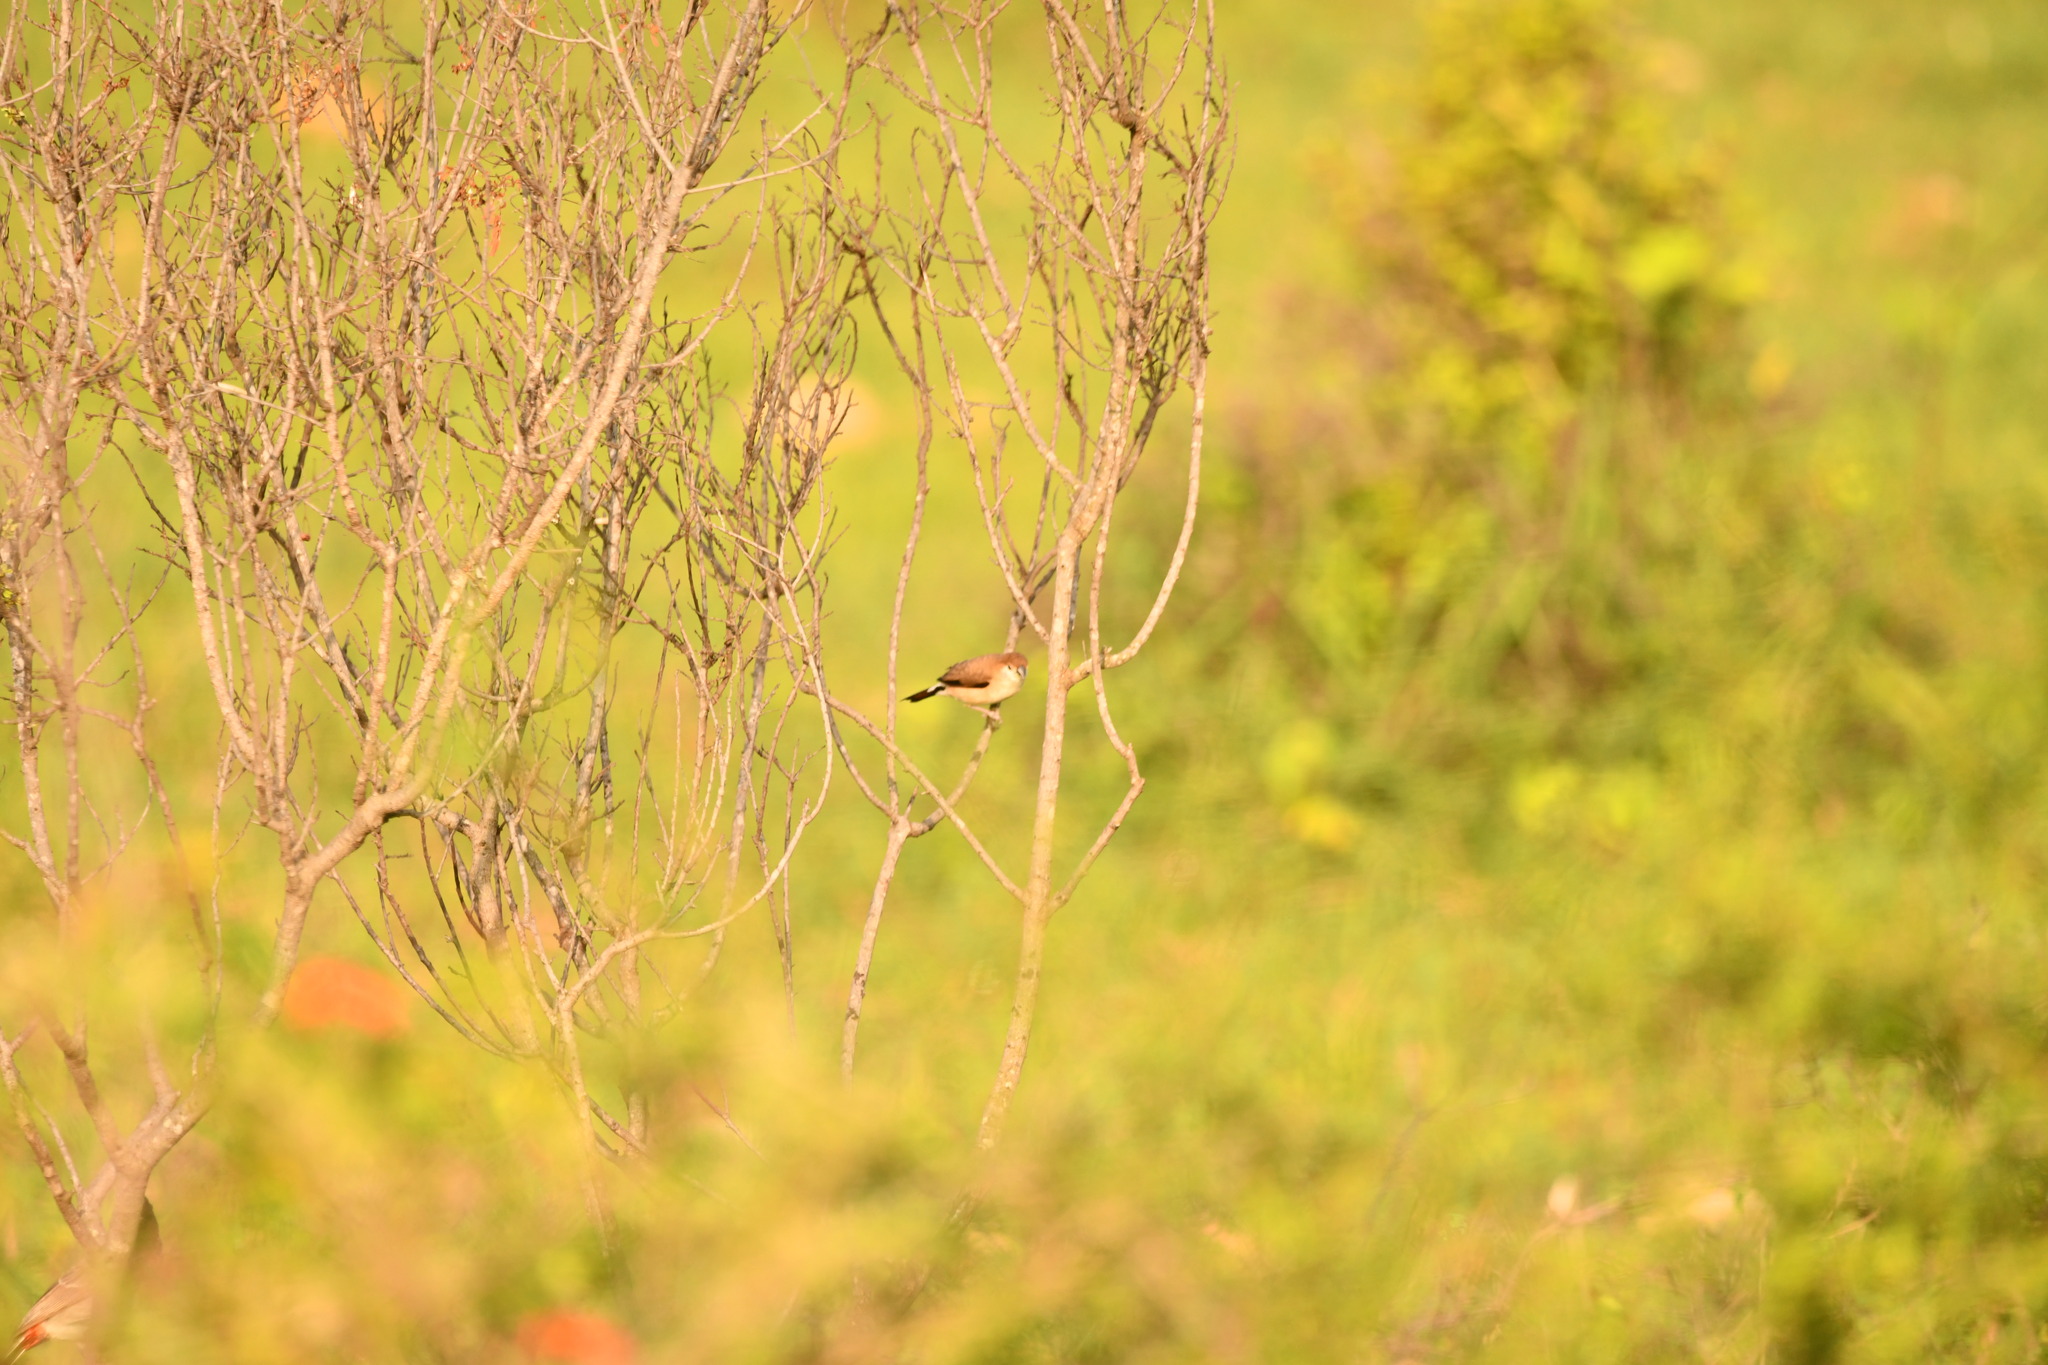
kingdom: Animalia
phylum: Chordata
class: Aves
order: Passeriformes
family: Estrildidae
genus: Euodice
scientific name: Euodice malabarica
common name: Indian silverbill
